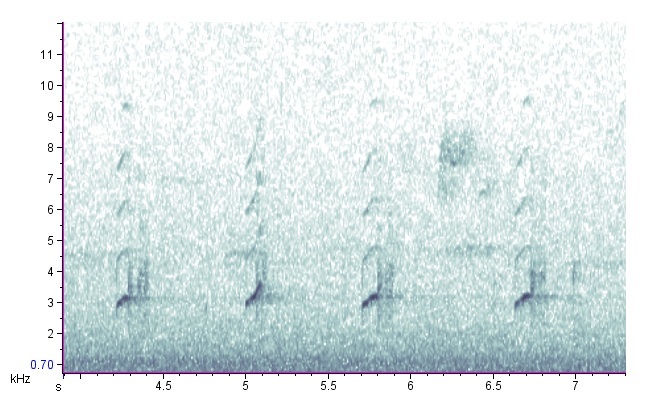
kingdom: Animalia
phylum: Chordata
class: Amphibia
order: Anura
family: Hylidae
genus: Pseudacris
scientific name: Pseudacris crucifer
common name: Spring peeper
